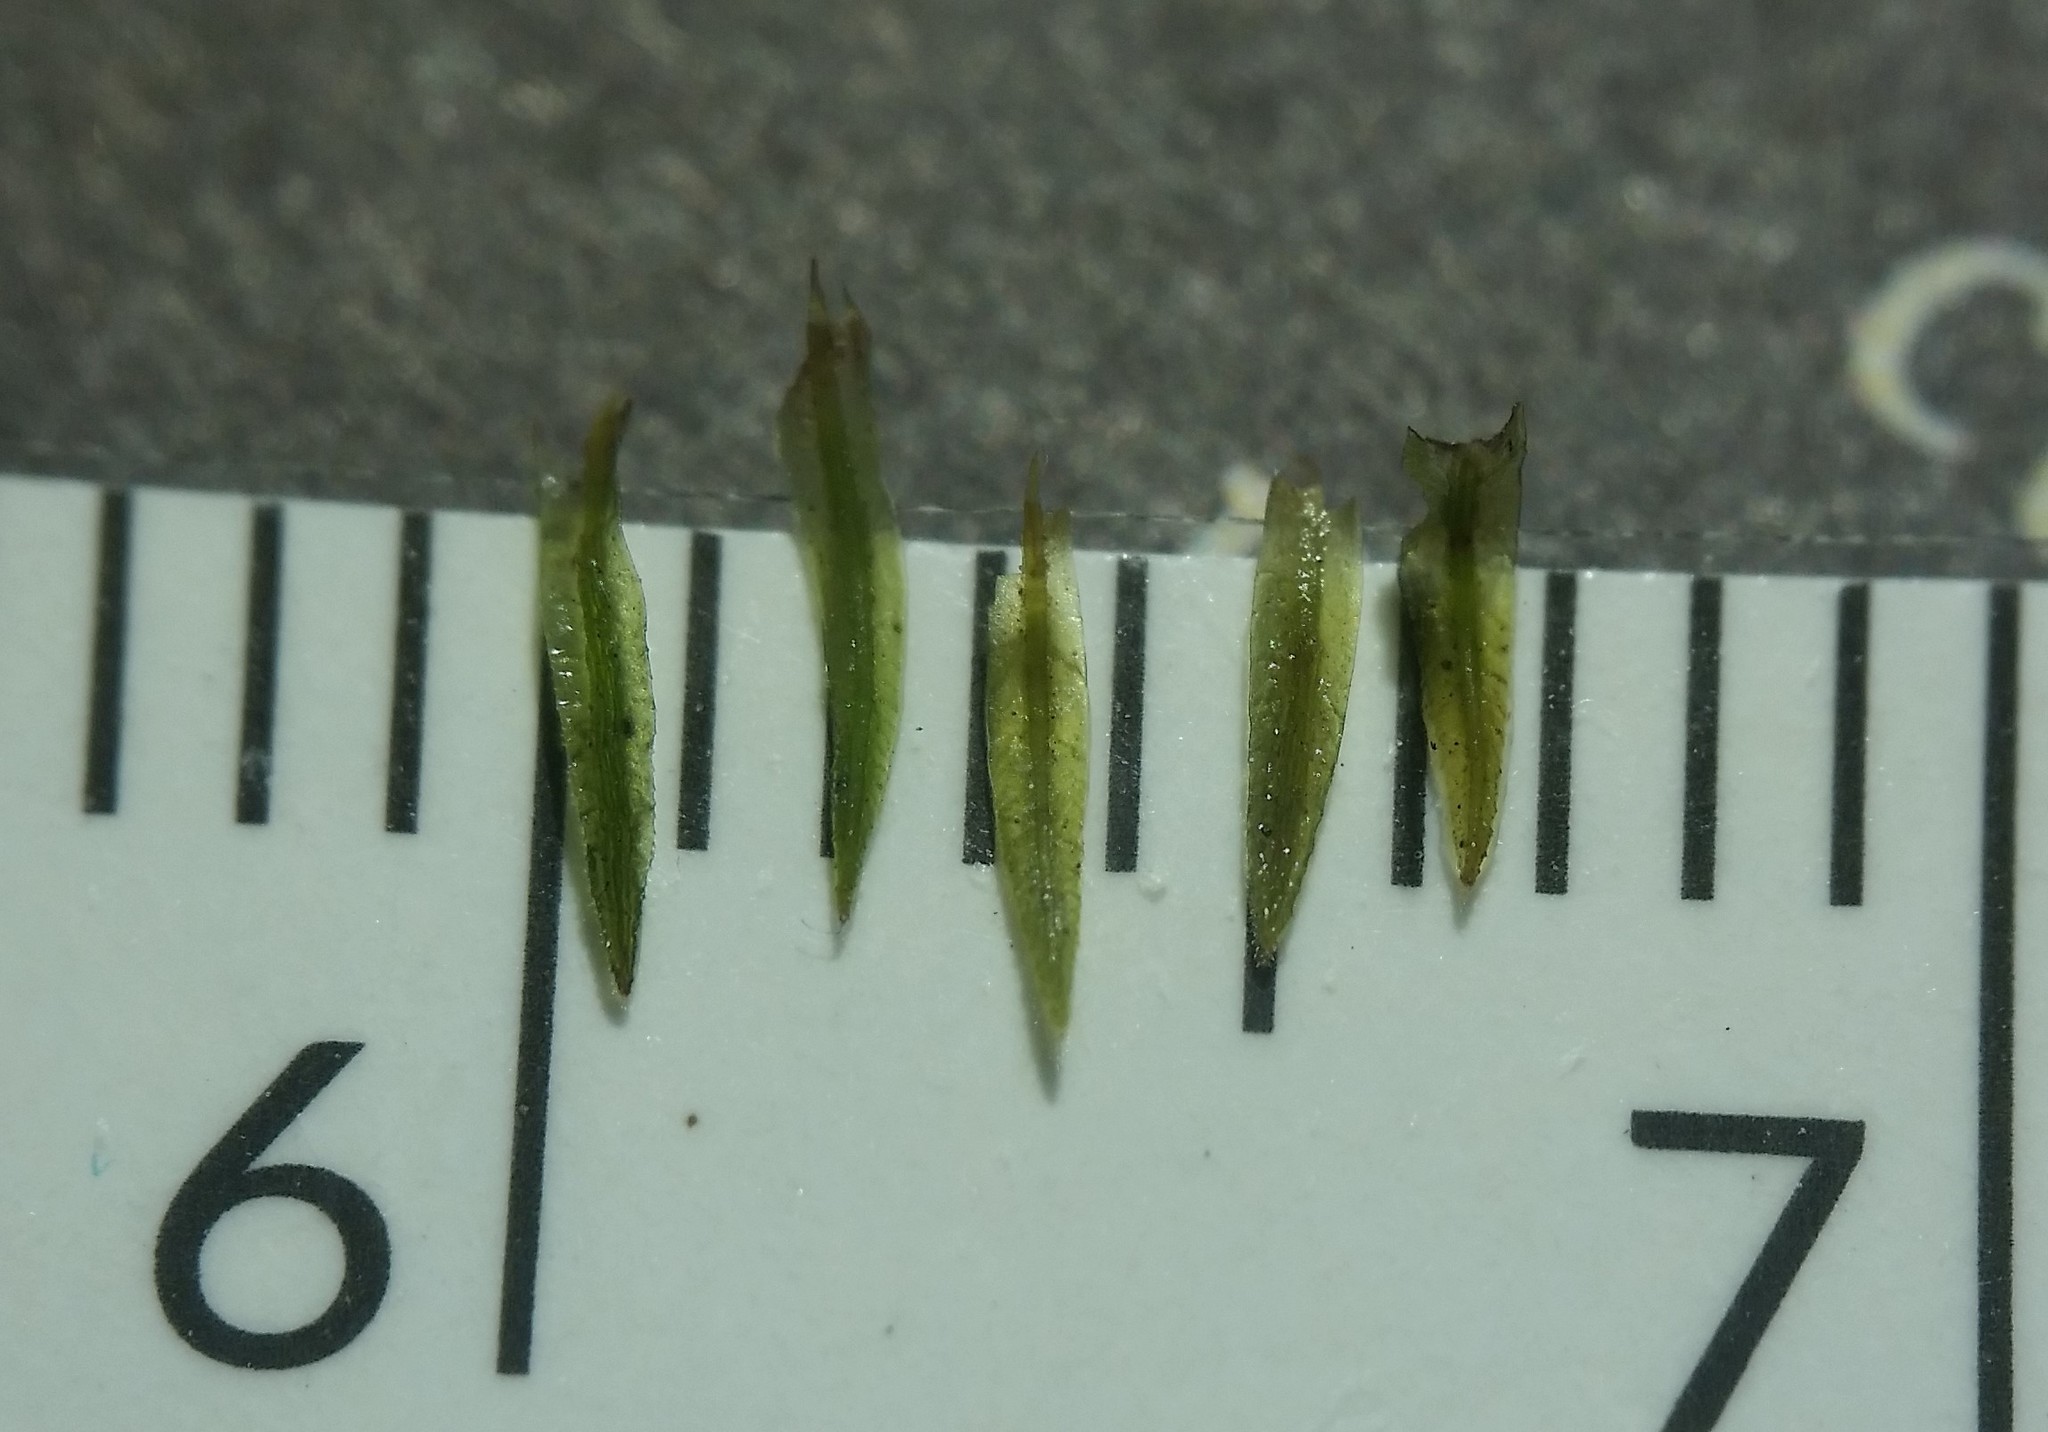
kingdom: Plantae
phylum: Bryophyta
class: Polytrichopsida
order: Polytrichales
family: Polytrichaceae
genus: Atrichum
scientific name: Atrichum angustatum
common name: Lesser smoothcap
